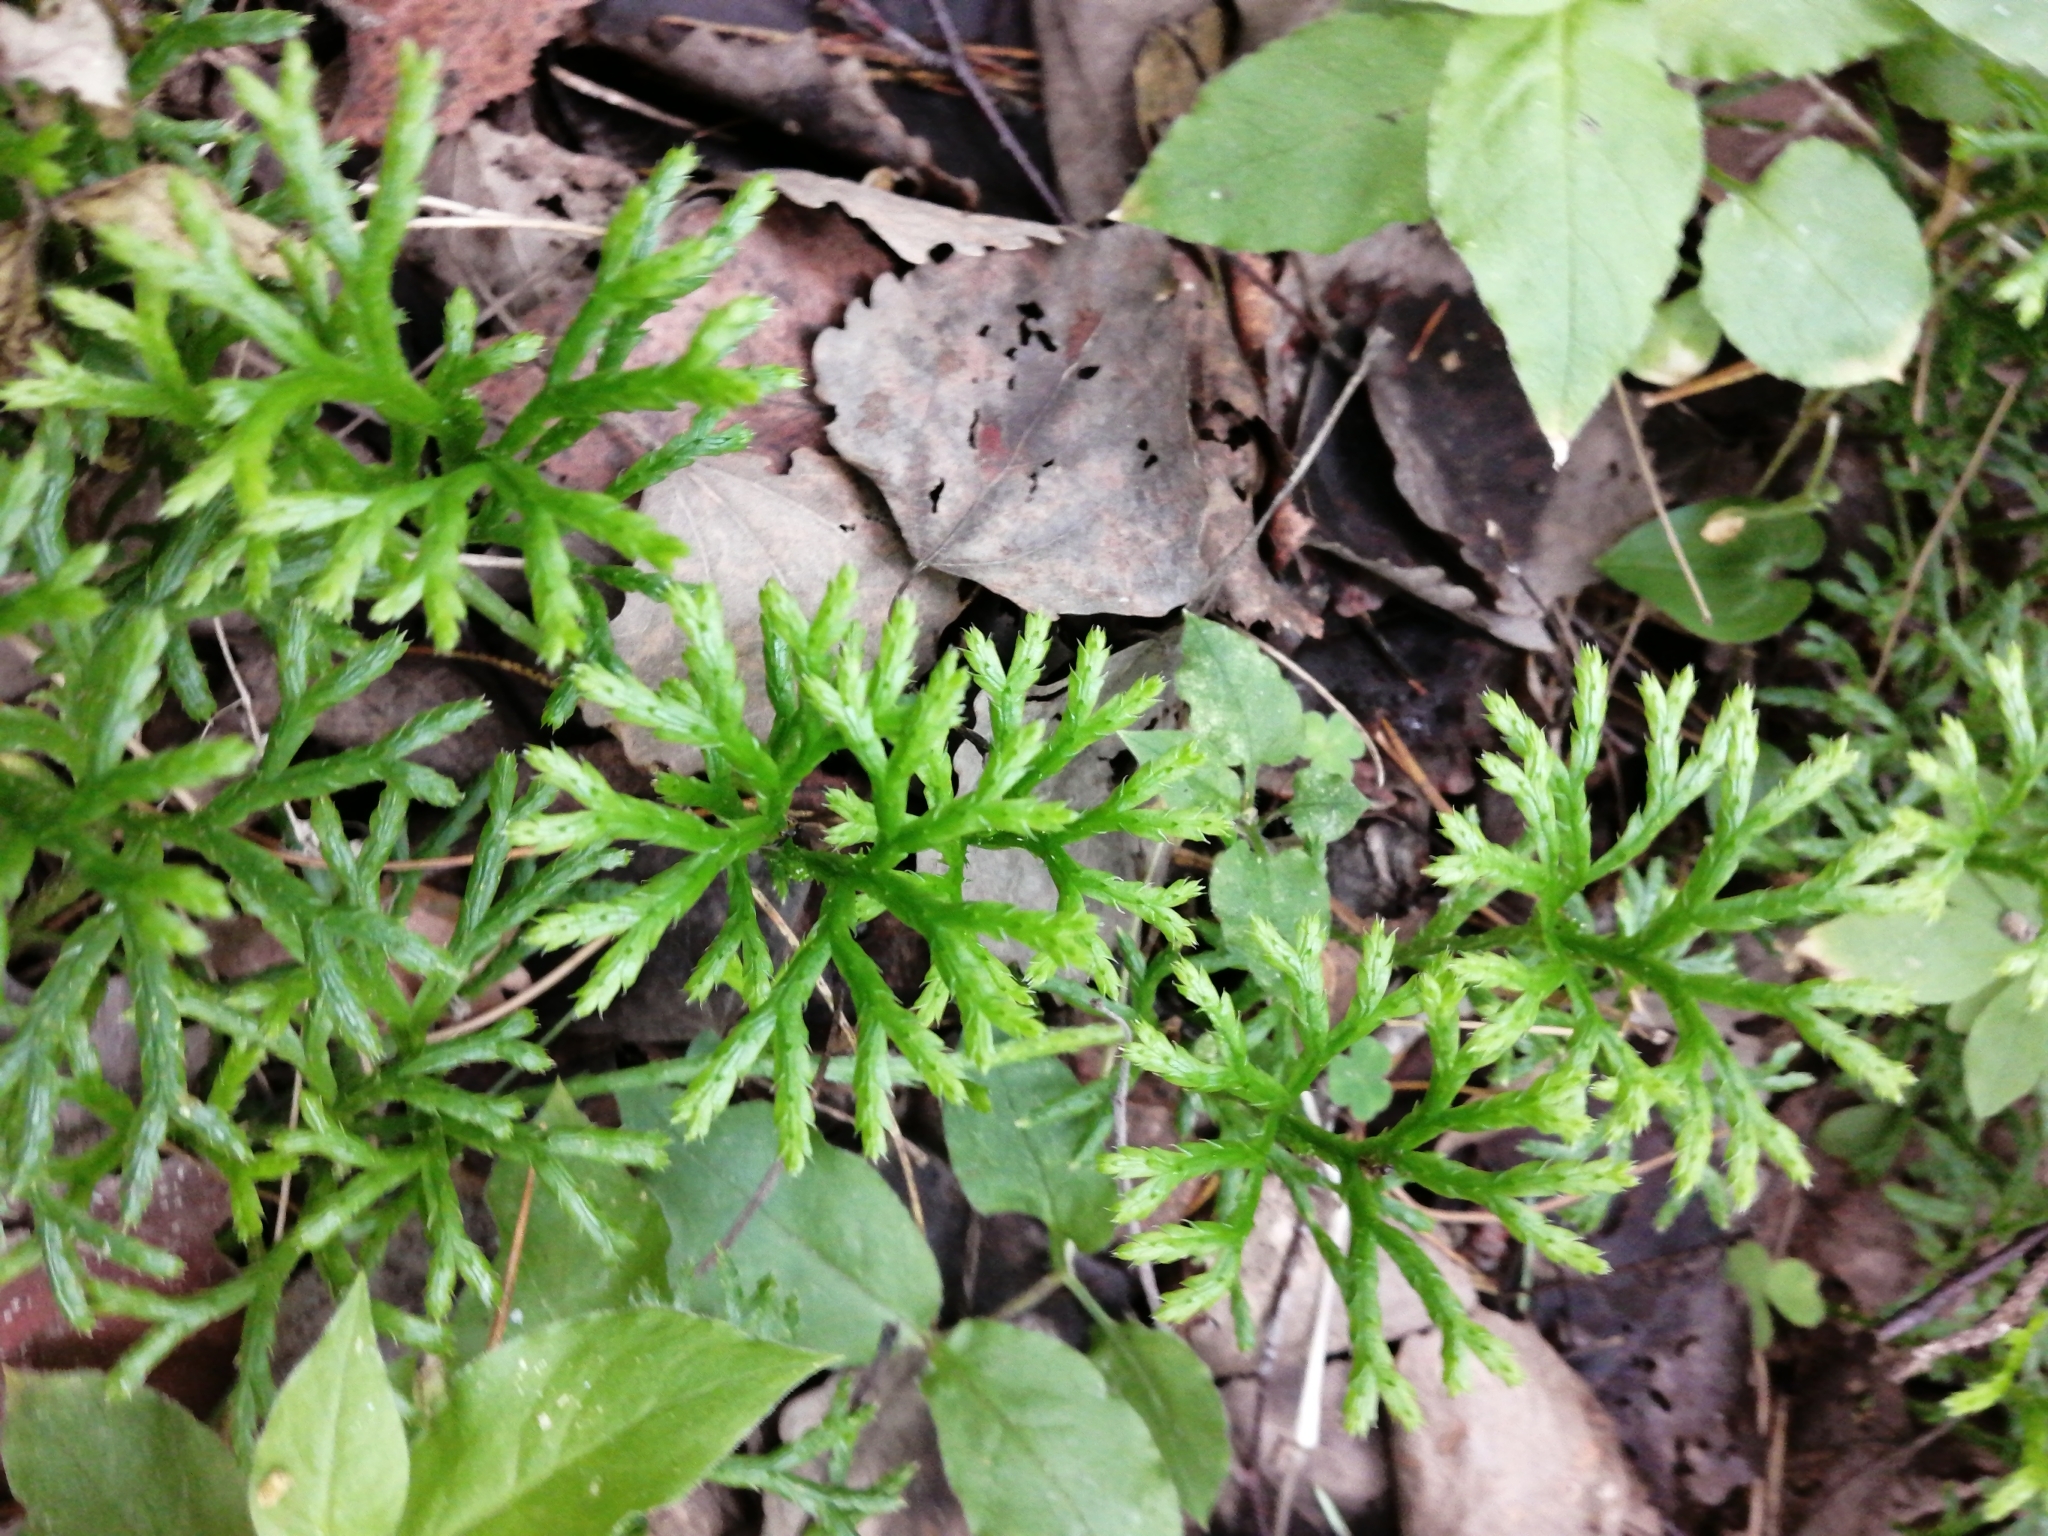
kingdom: Plantae
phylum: Tracheophyta
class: Lycopodiopsida
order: Lycopodiales
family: Lycopodiaceae
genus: Diphasiastrum
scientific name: Diphasiastrum complanatum
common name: Northern running-pine
